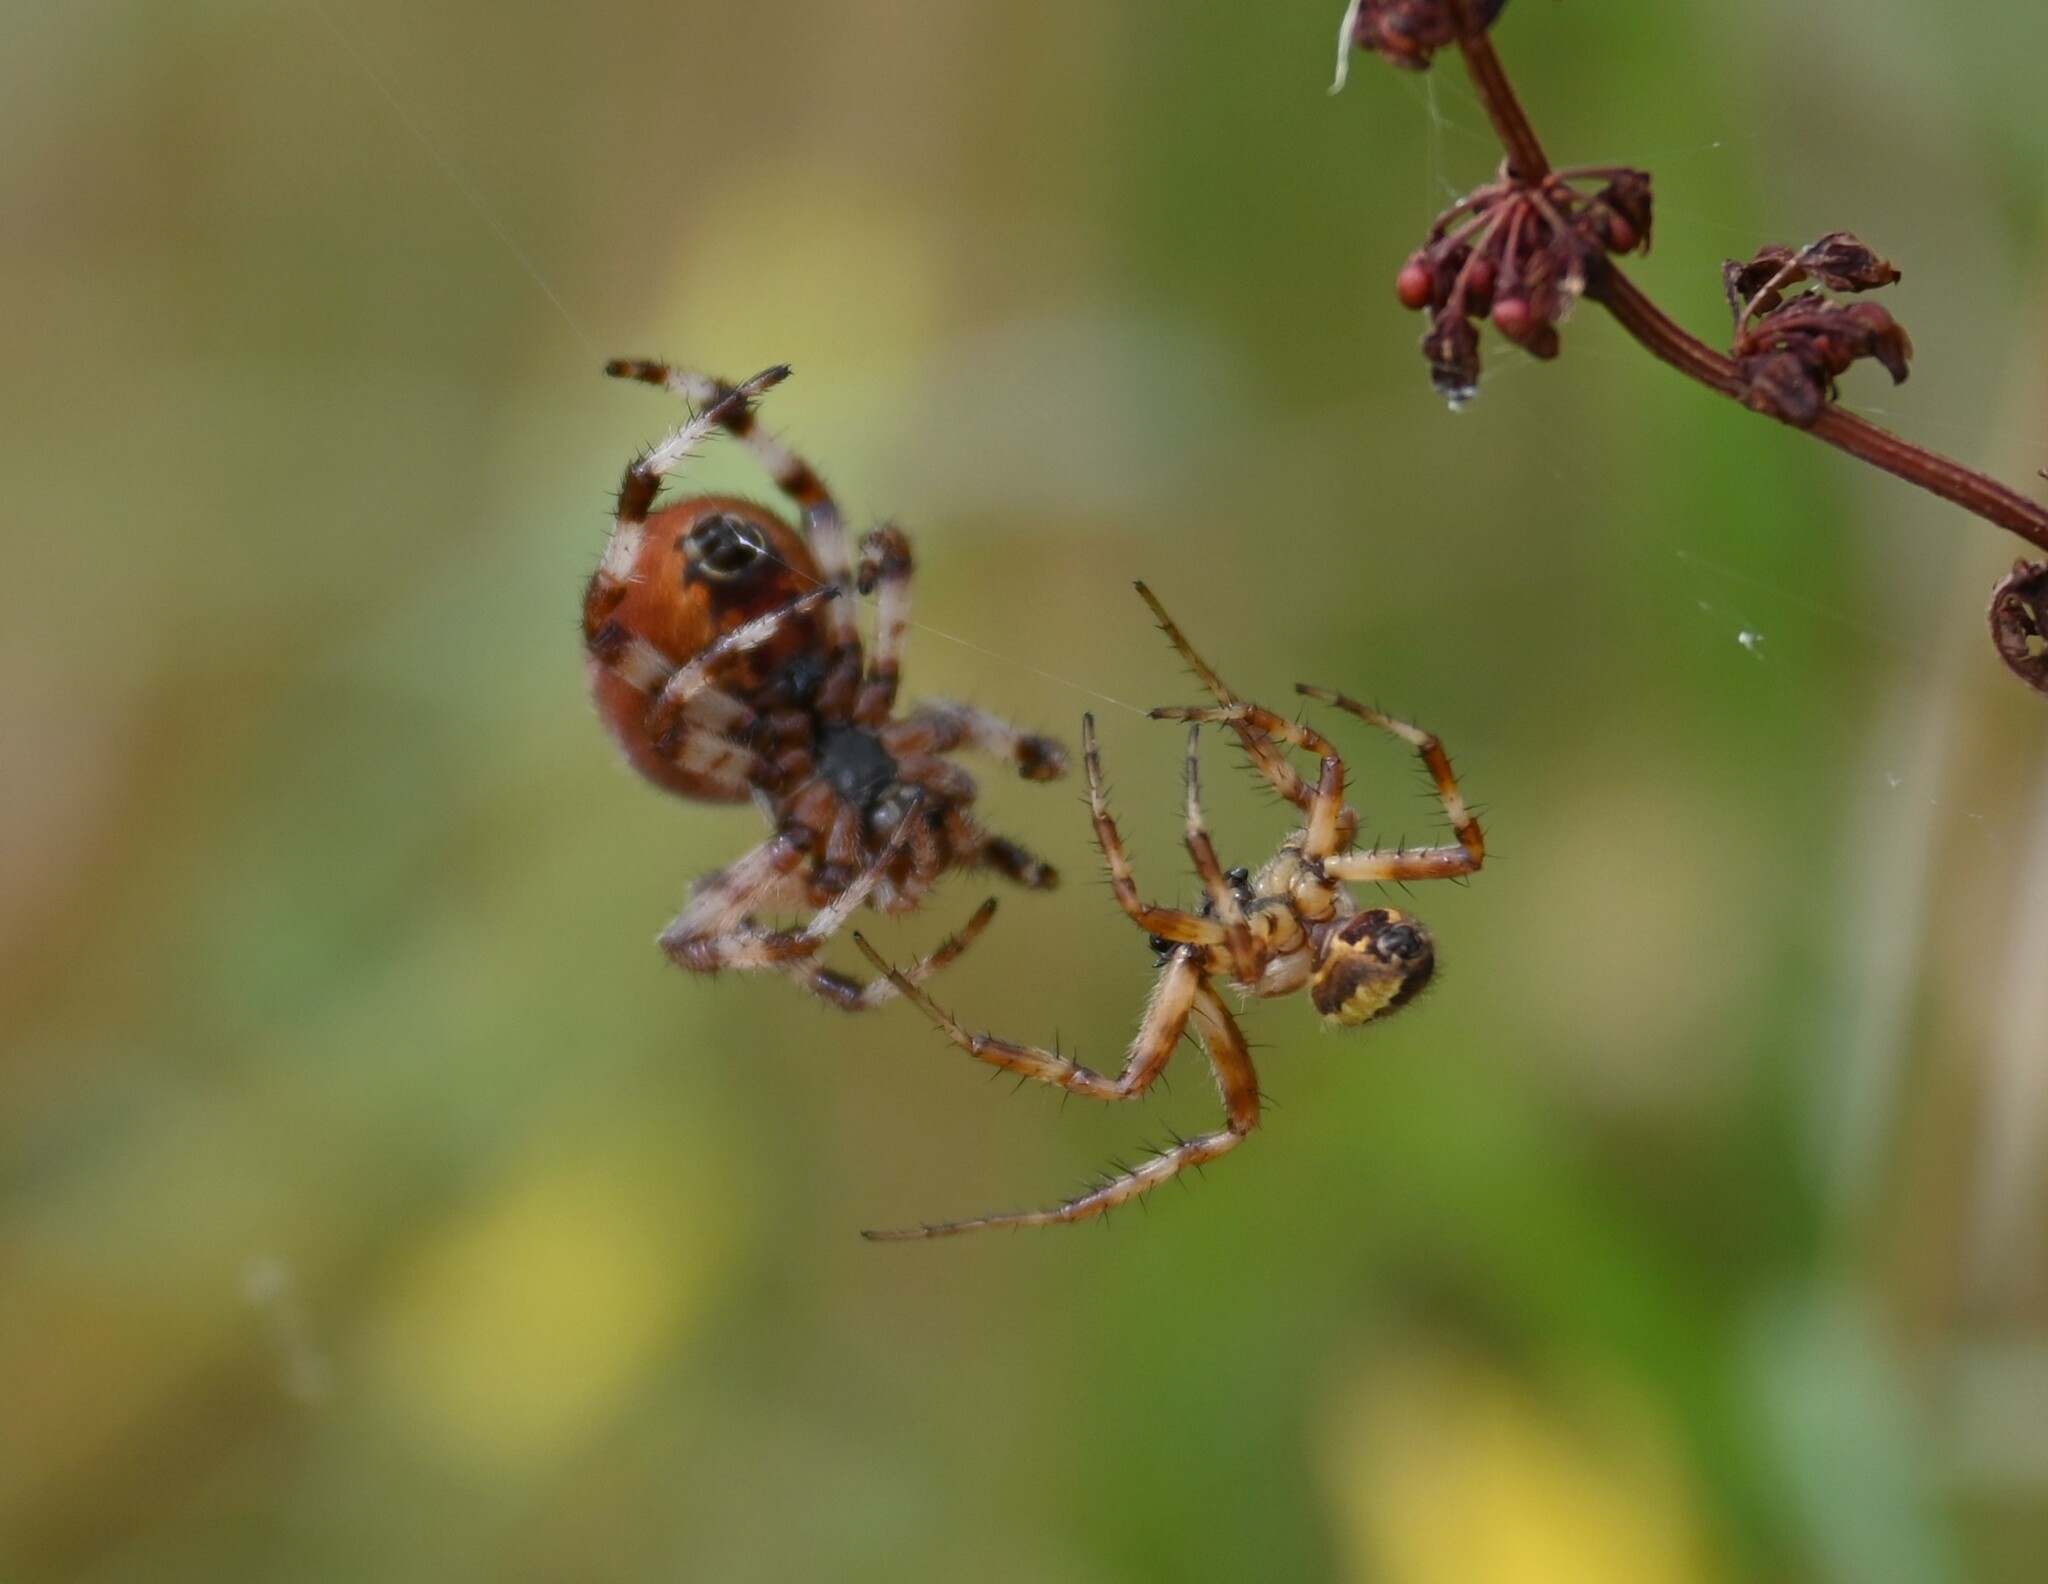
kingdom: Animalia
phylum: Arthropoda
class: Arachnida
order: Araneae
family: Araneidae
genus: Araneus
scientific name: Araneus quadratus
